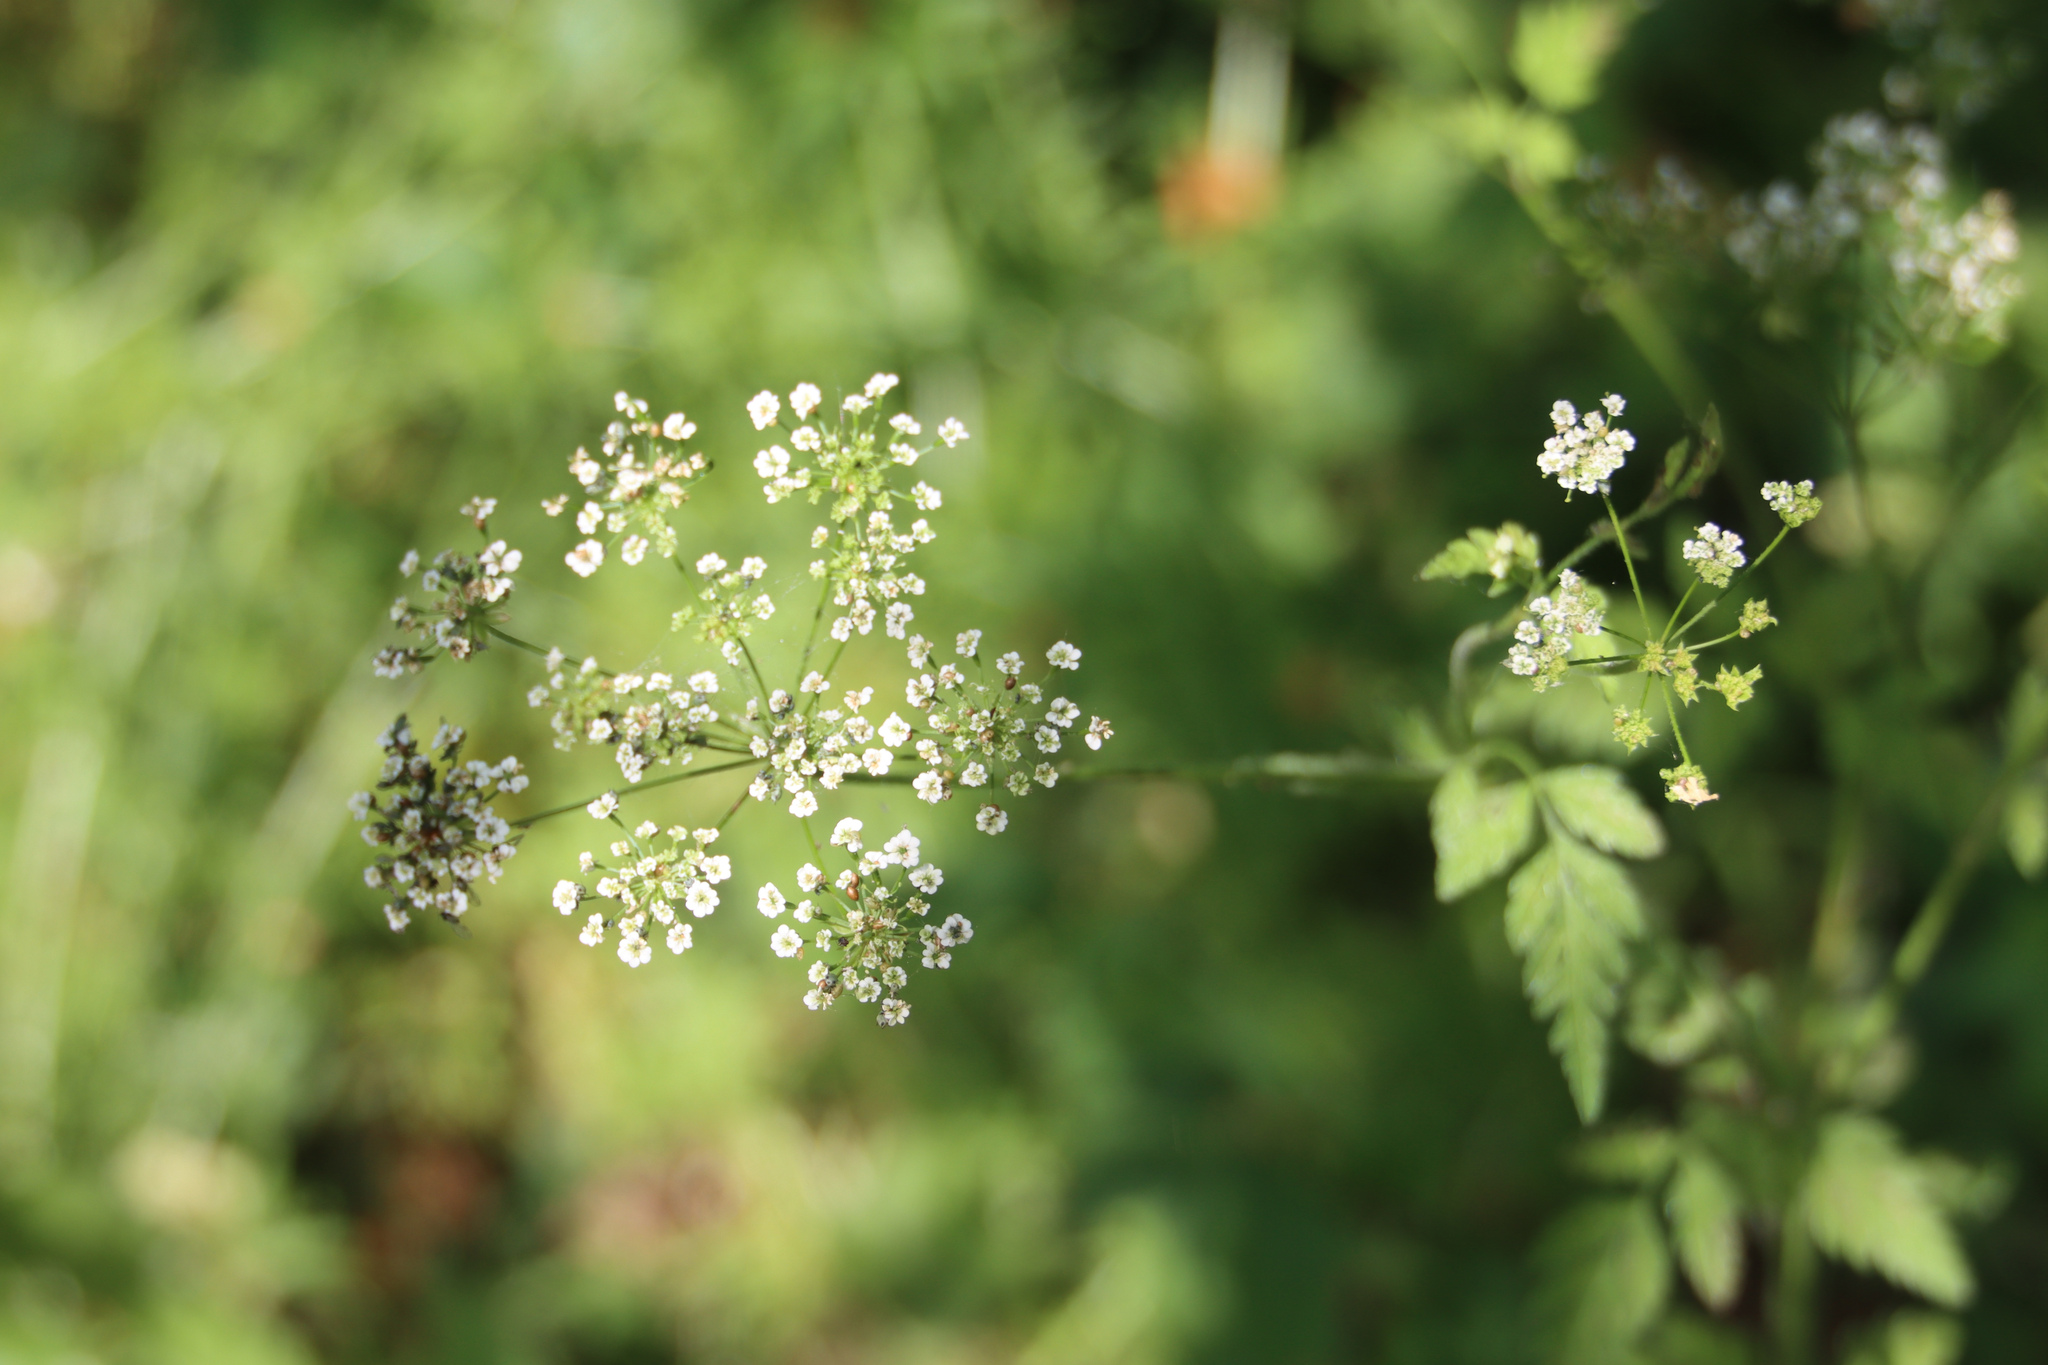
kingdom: Plantae
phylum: Tracheophyta
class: Magnoliopsida
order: Apiales
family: Apiaceae
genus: Chaerophyllum
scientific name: Chaerophyllum temulum
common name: Rough chervil
